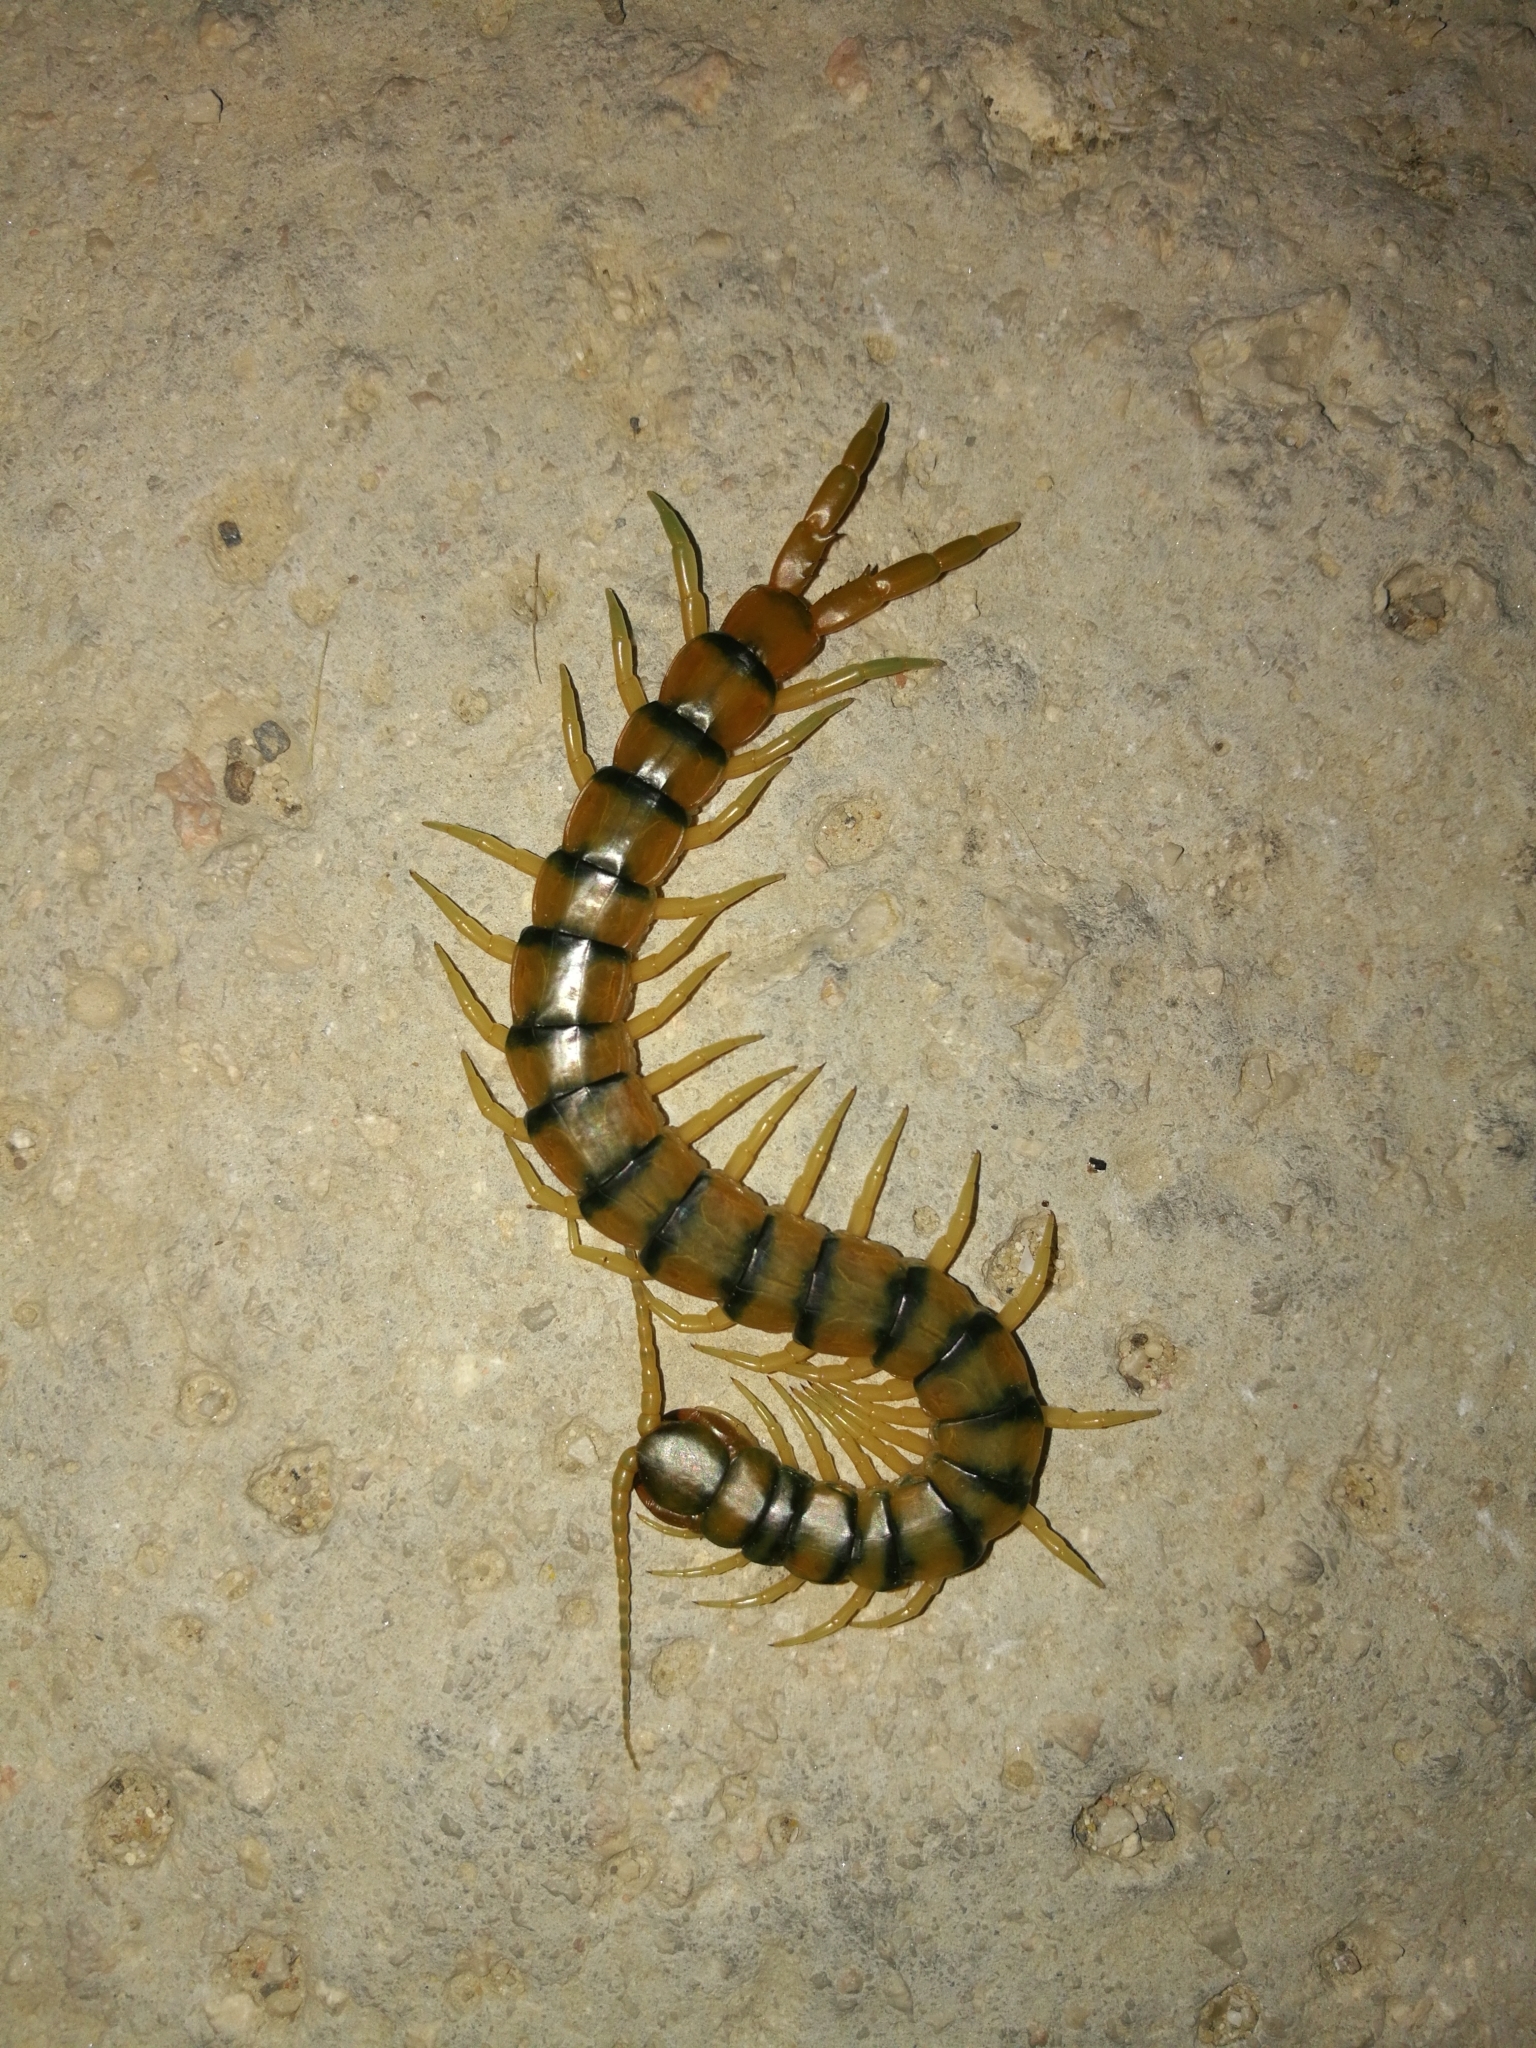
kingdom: Animalia
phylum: Arthropoda
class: Chilopoda
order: Scolopendromorpha
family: Scolopendridae
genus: Scolopendra
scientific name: Scolopendra cingulata
